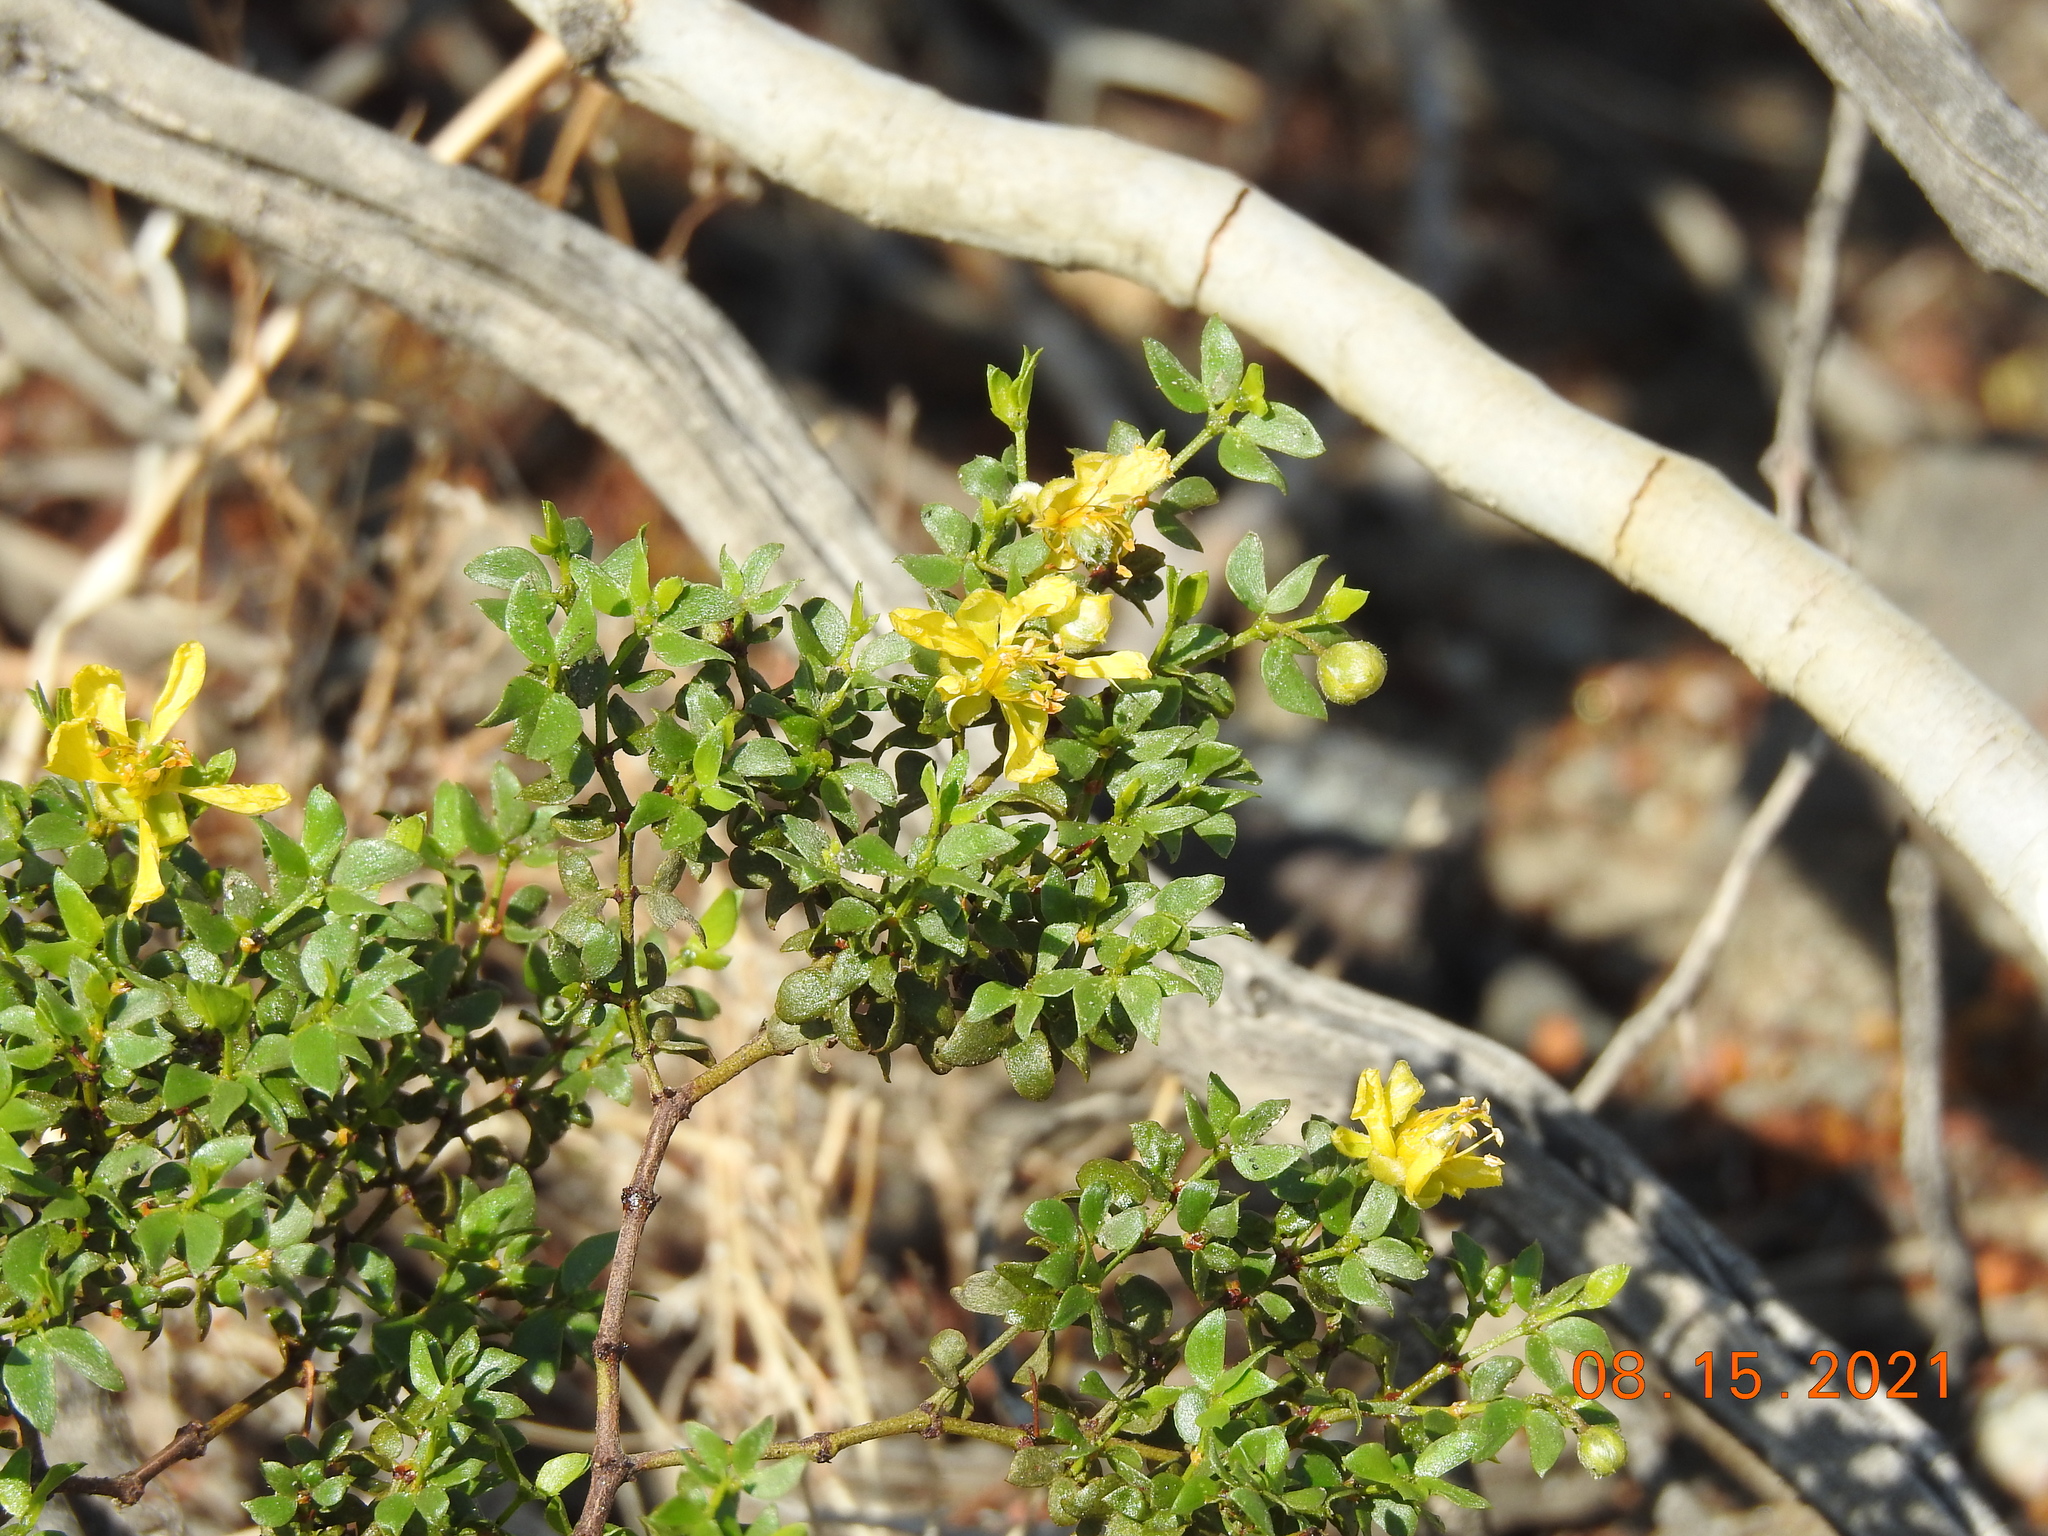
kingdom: Plantae
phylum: Tracheophyta
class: Magnoliopsida
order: Zygophyllales
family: Zygophyllaceae
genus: Larrea
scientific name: Larrea tridentata
